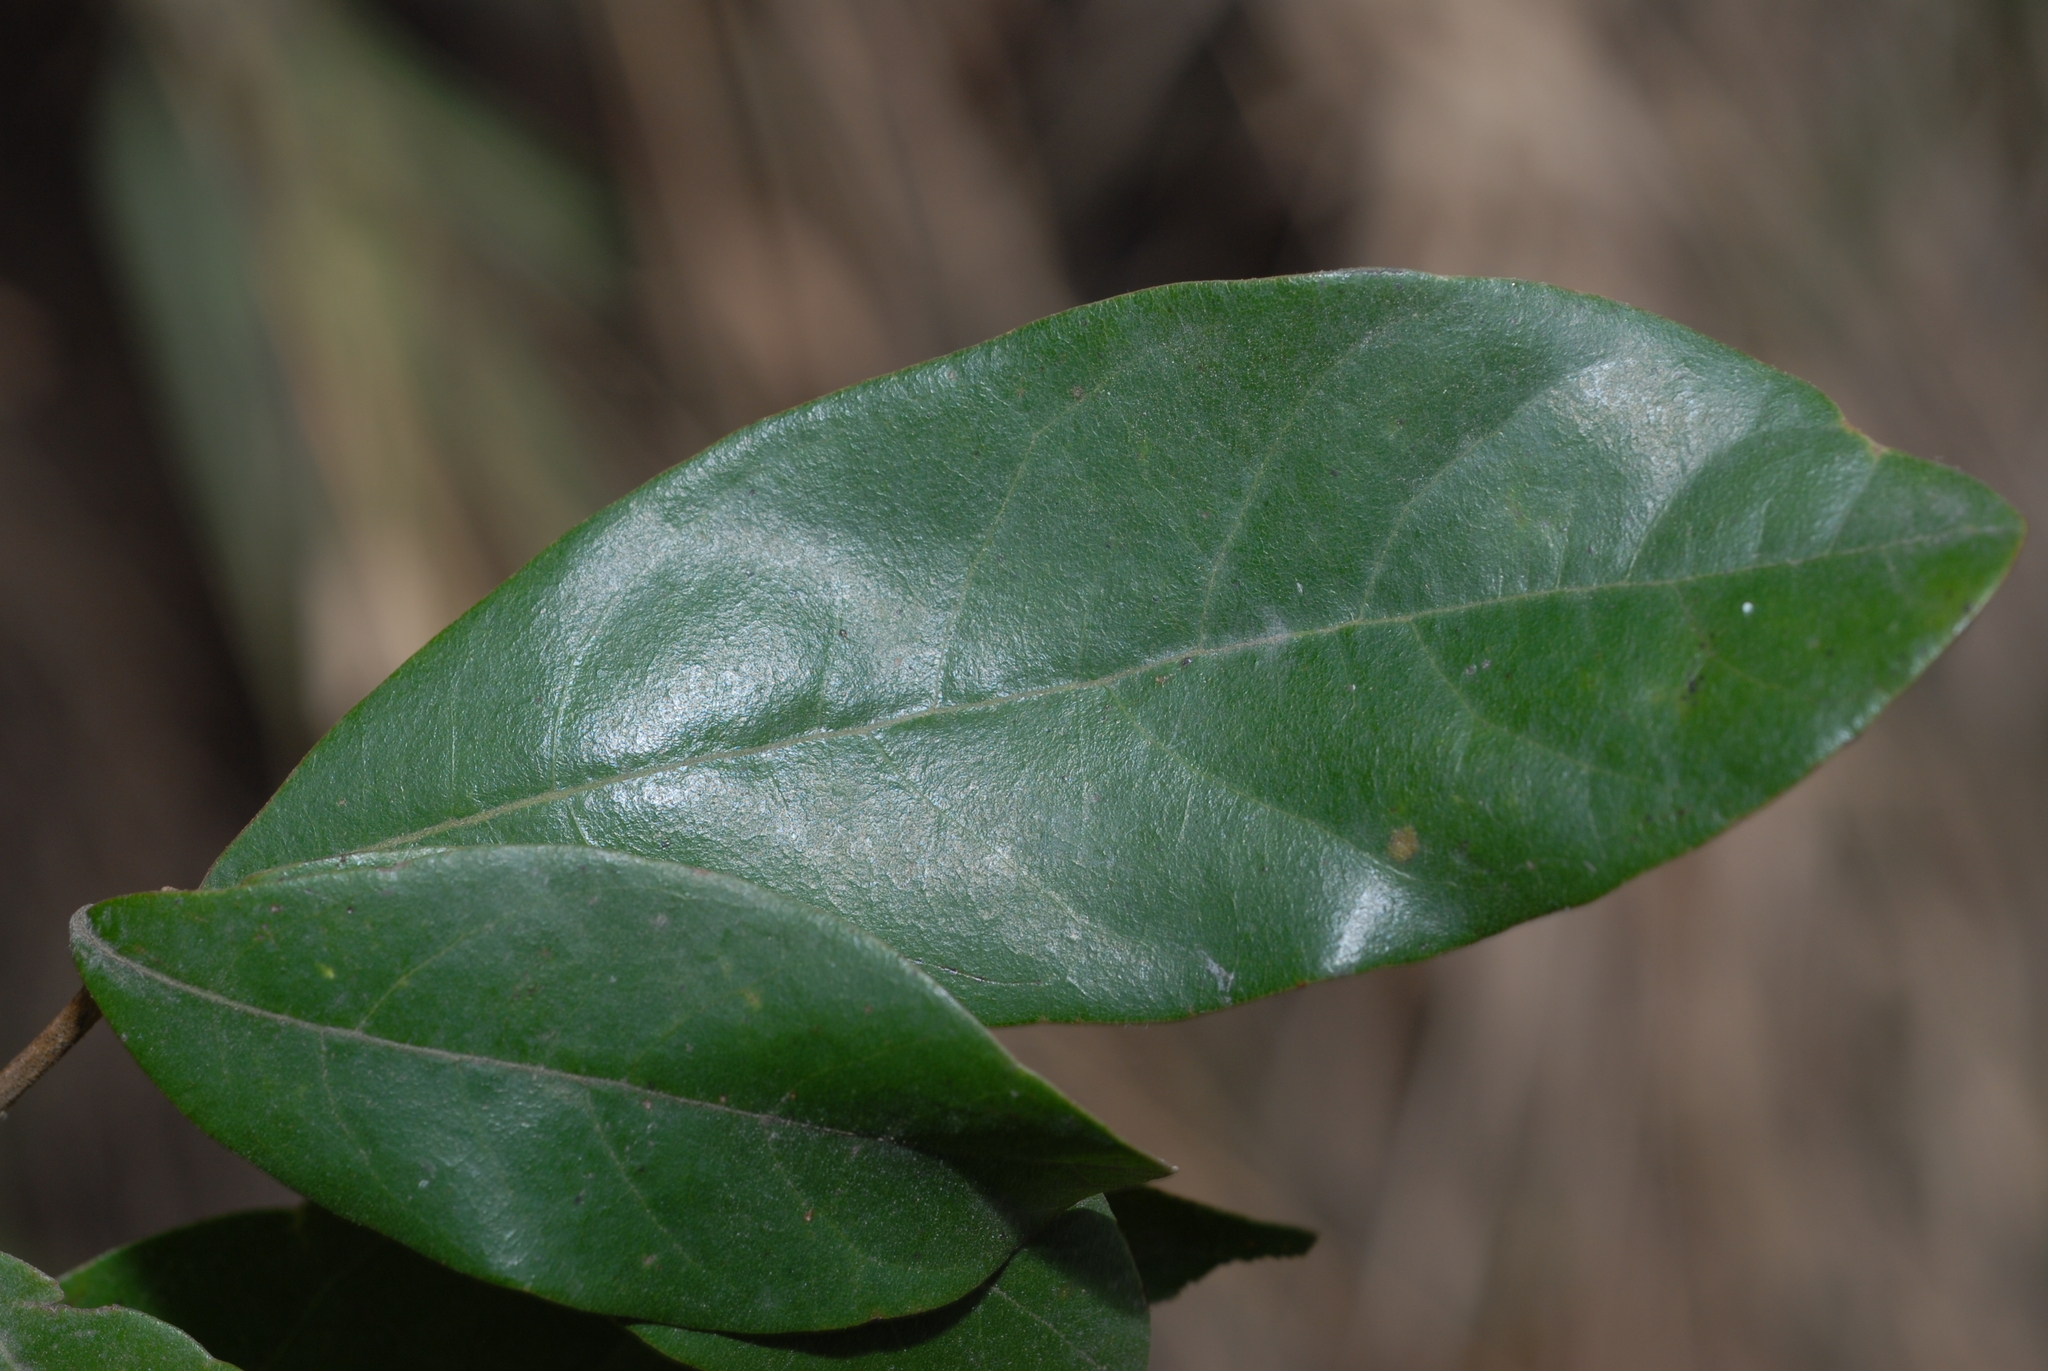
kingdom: Plantae
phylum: Tracheophyta
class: Magnoliopsida
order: Laurales
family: Lauraceae
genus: Litsea
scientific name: Litsea hypophaea
